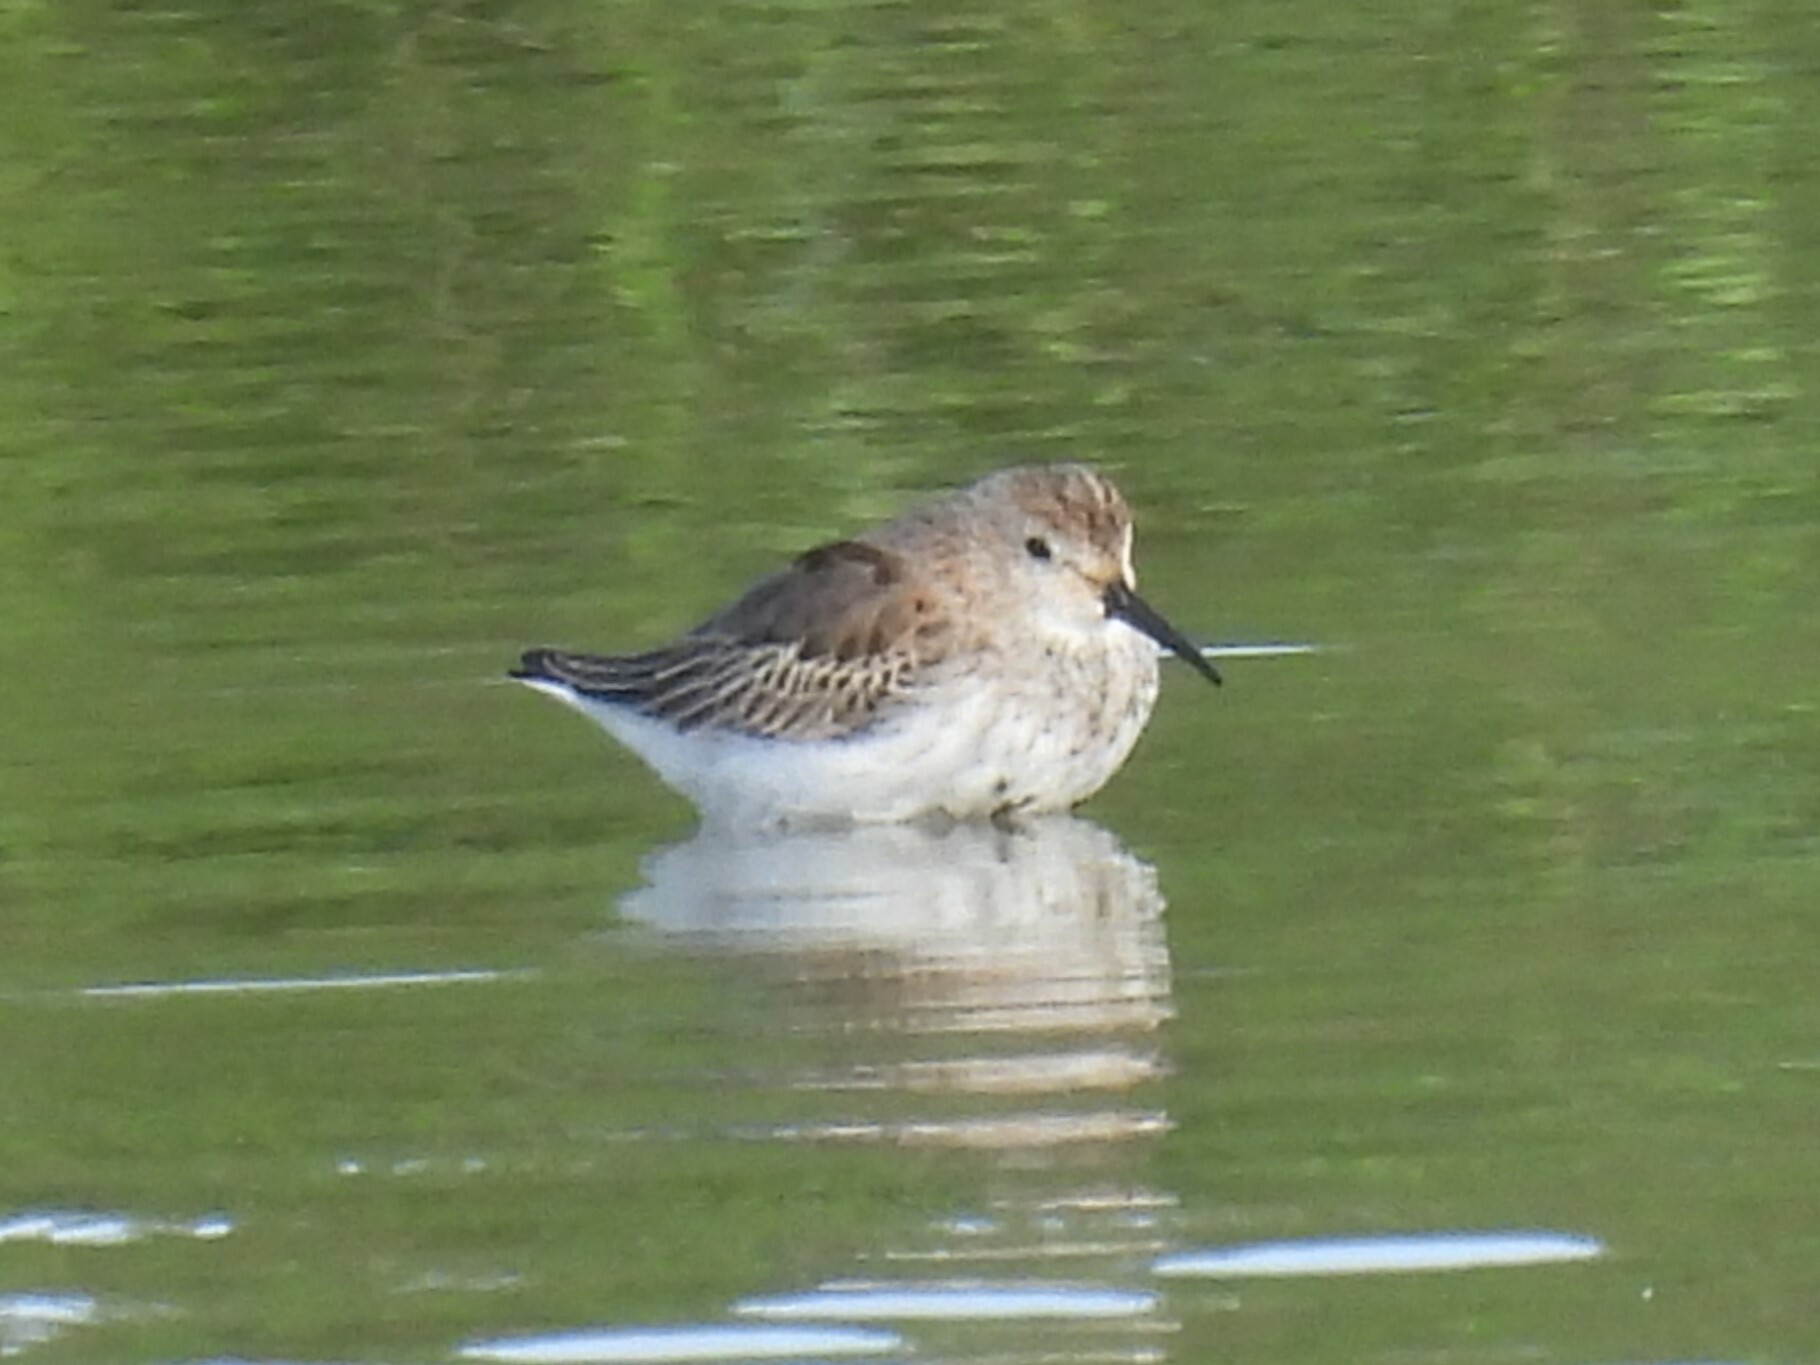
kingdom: Animalia
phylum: Chordata
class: Aves
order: Charadriiformes
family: Scolopacidae
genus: Calidris
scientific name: Calidris alpina
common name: Dunlin
